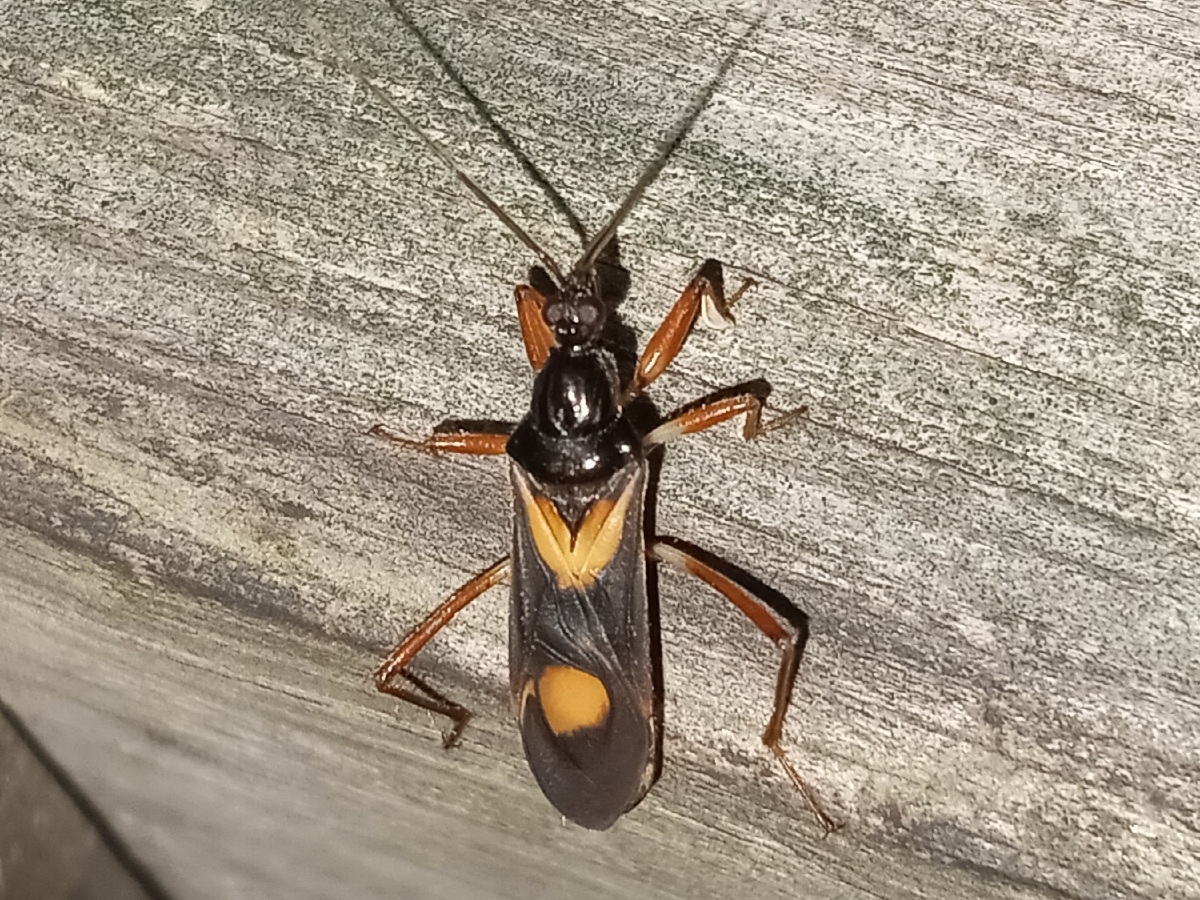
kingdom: Animalia
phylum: Arthropoda
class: Insecta
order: Hemiptera
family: Reduviidae
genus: Rasahus
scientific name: Rasahus hamatus
